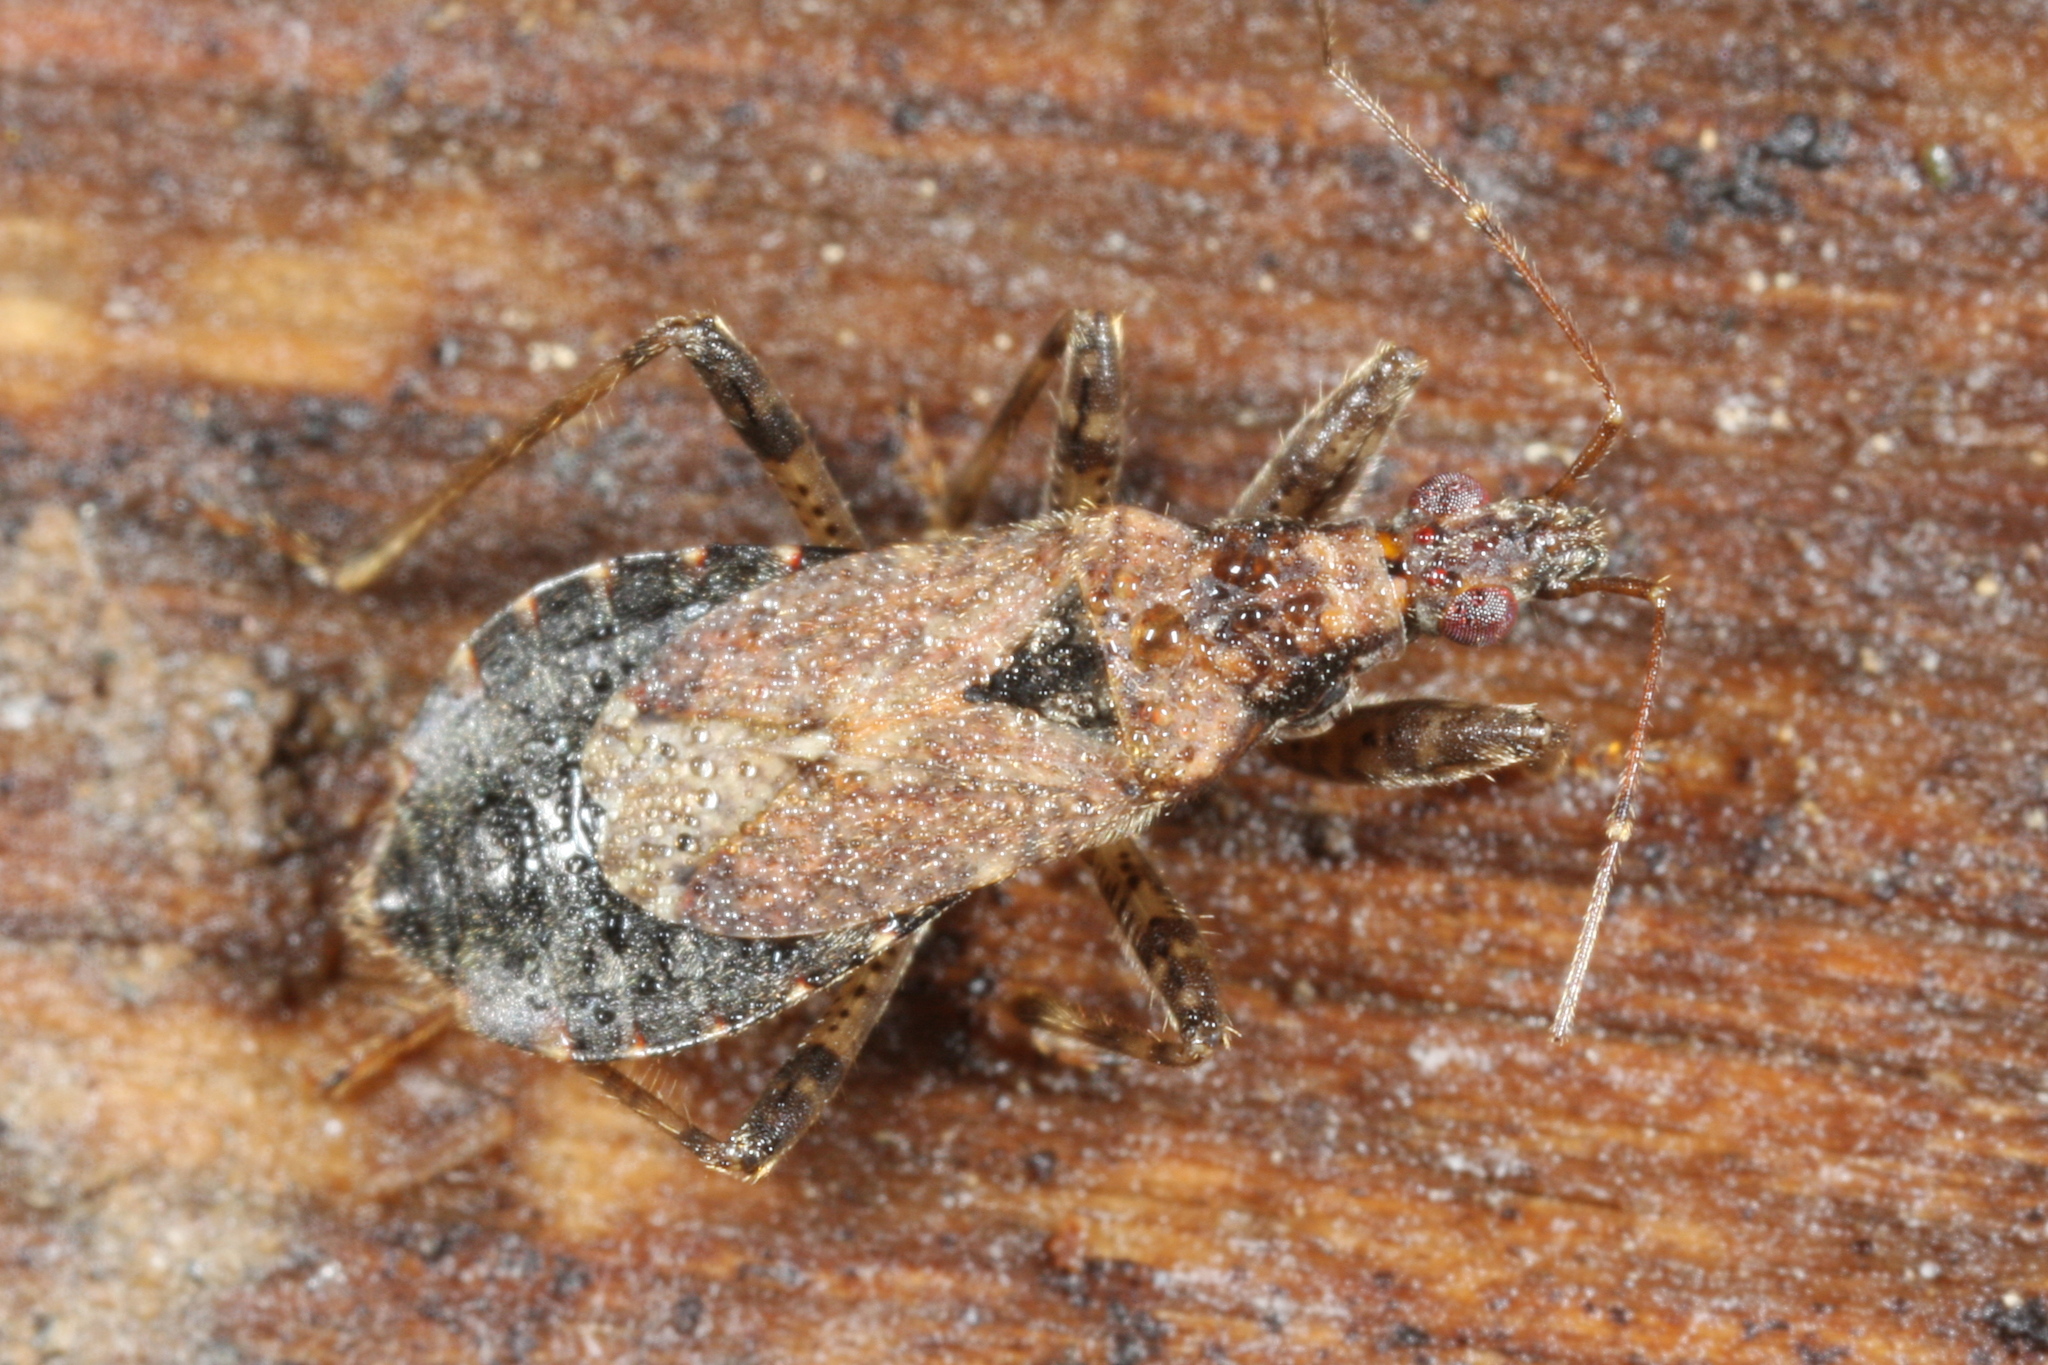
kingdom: Animalia
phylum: Arthropoda
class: Insecta
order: Hemiptera
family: Nabidae
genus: Himacerus
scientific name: Himacerus mirmicoides
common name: Ant damsel bug
